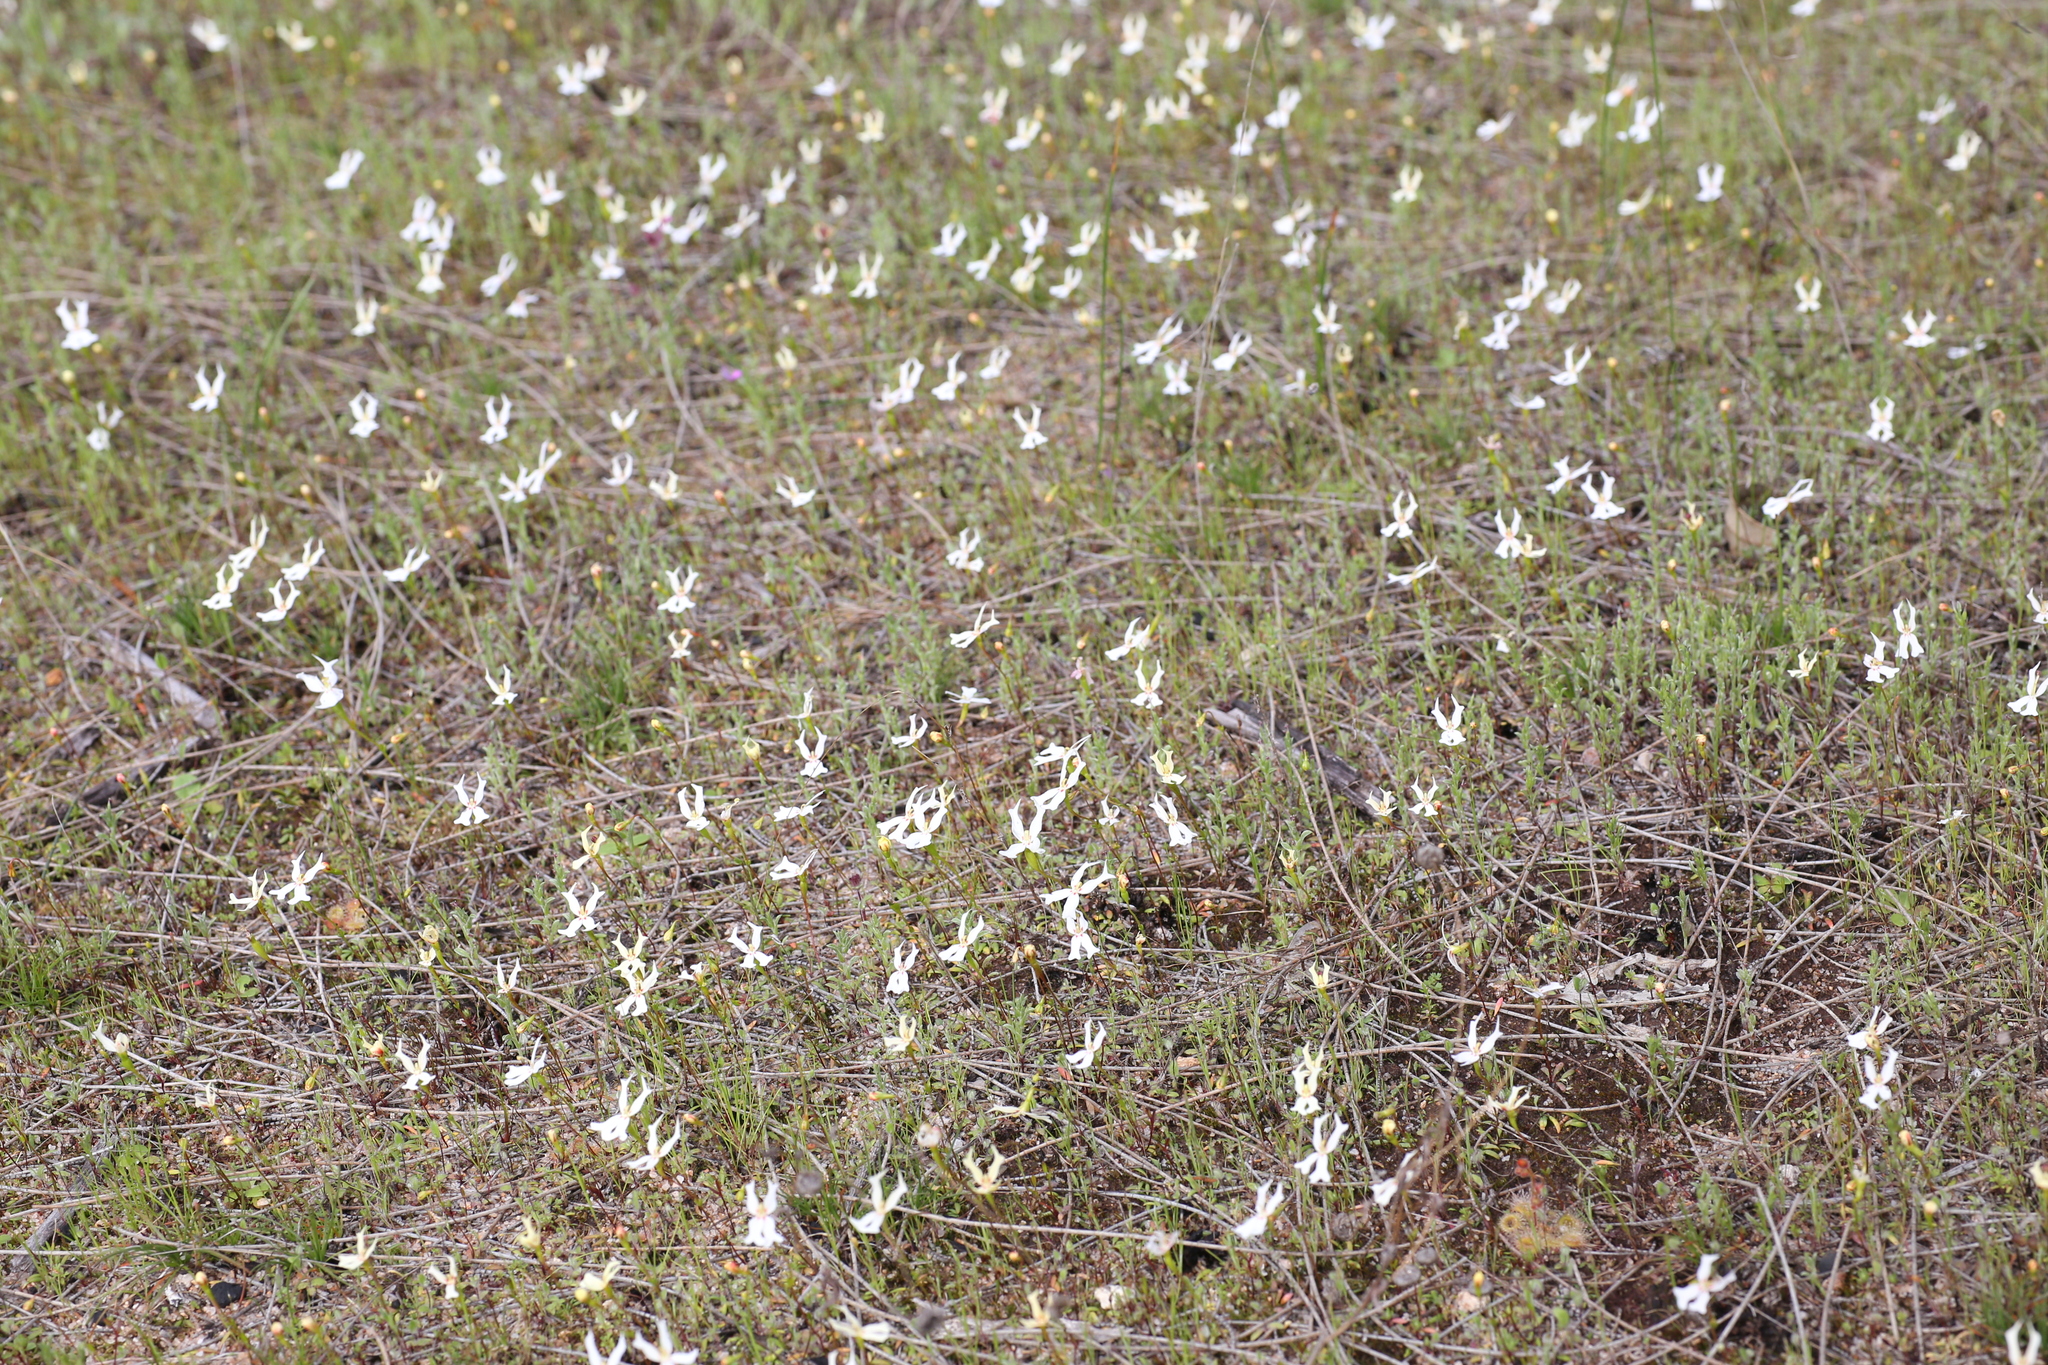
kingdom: Plantae
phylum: Tracheophyta
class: Magnoliopsida
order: Asterales
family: Stylidiaceae
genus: Stylidium
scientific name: Stylidium emarginatum
